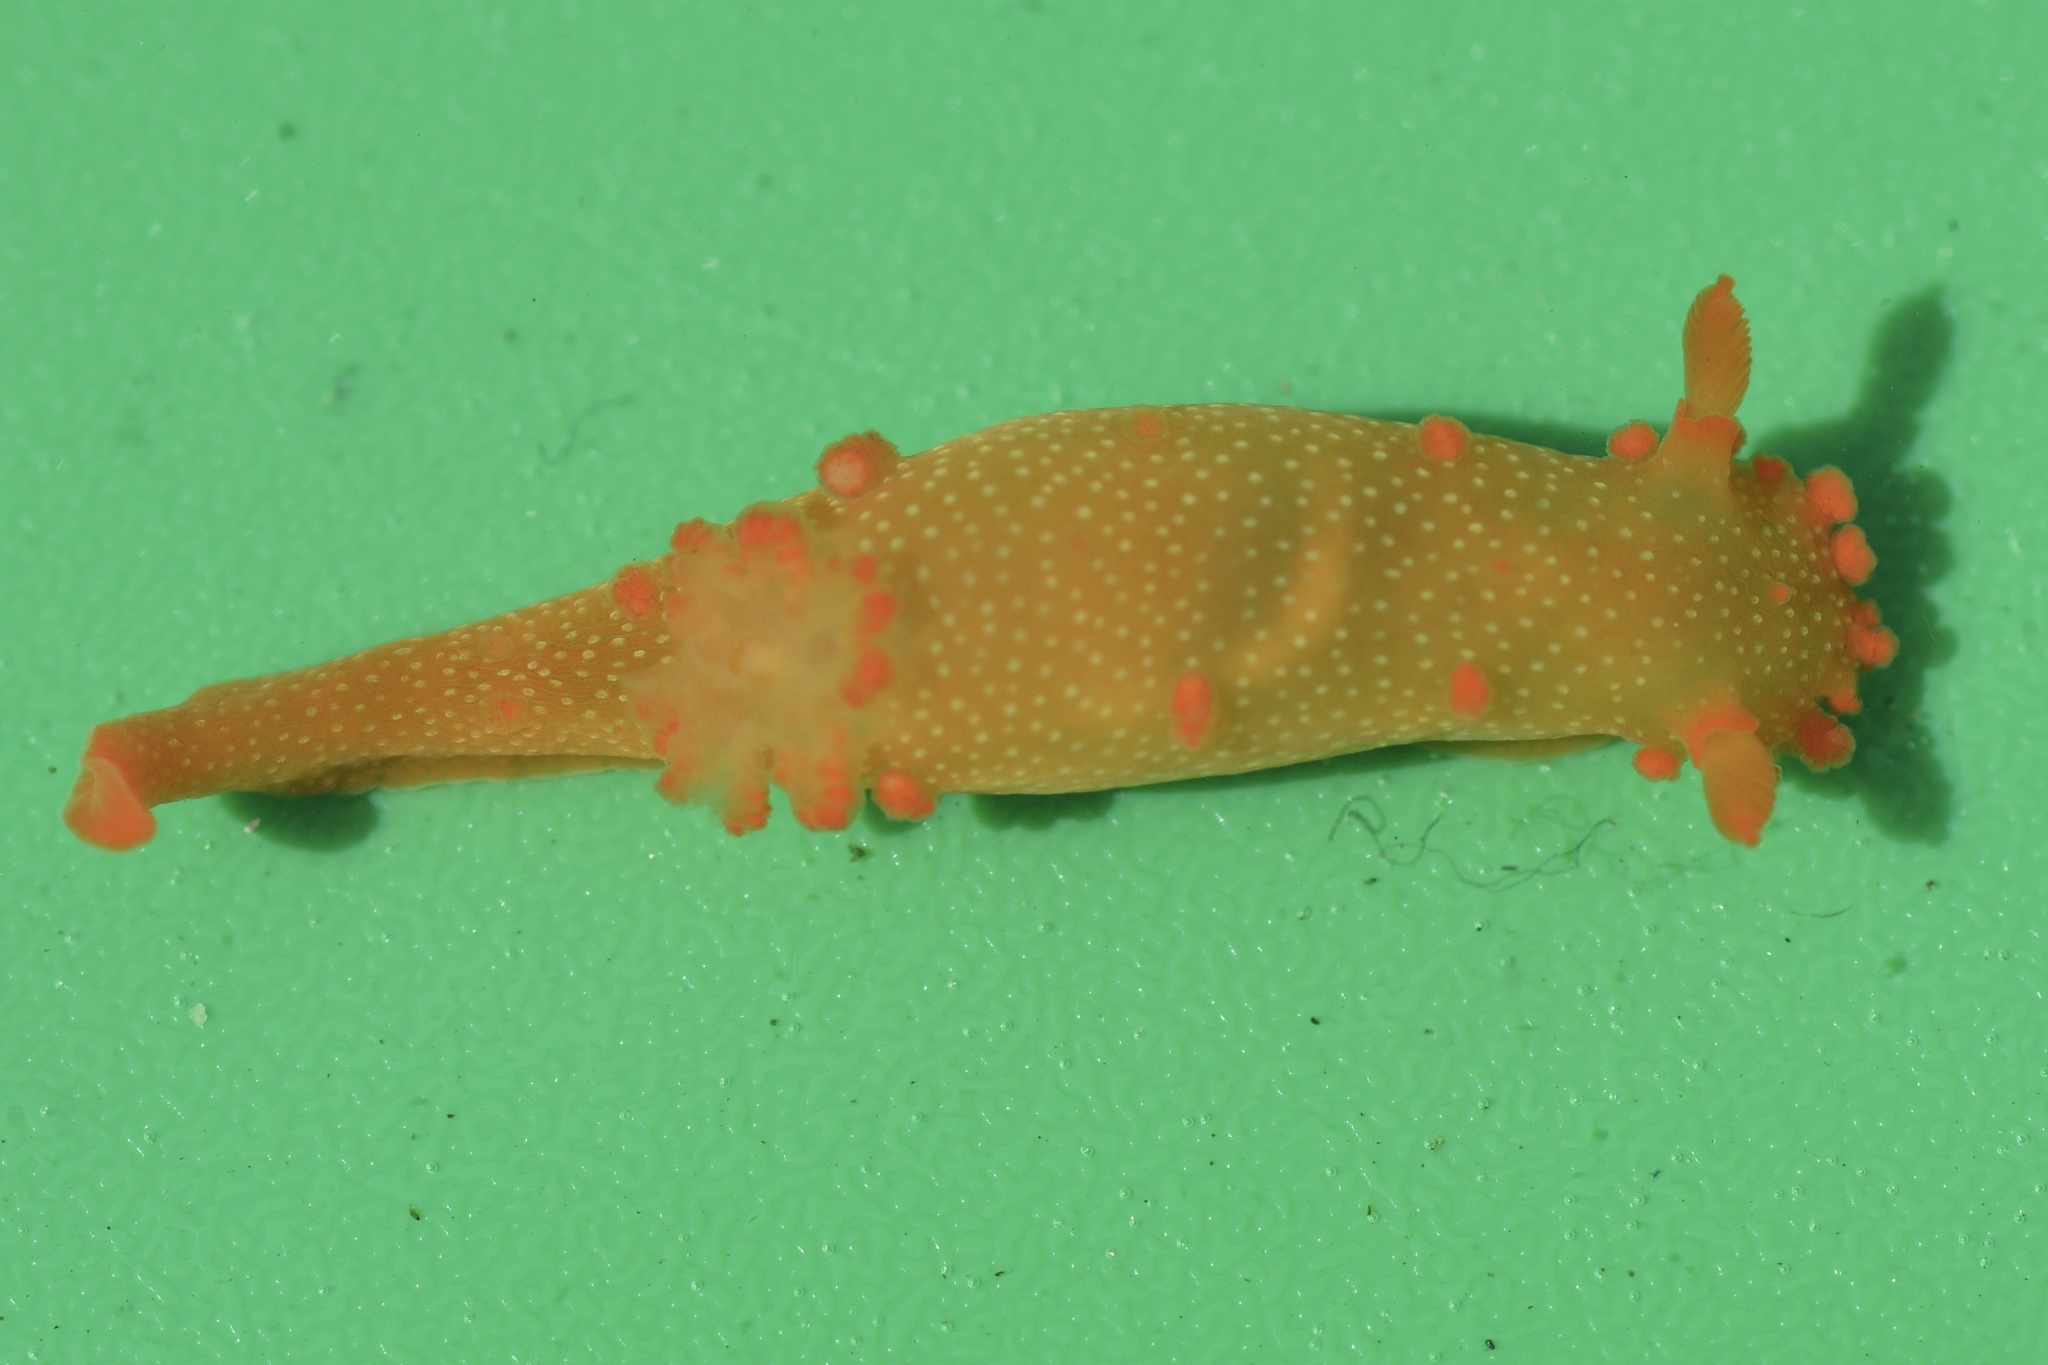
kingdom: Animalia
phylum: Mollusca
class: Gastropoda
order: Nudibranchia
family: Polyceridae
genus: Triopha
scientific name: Triopha maculata
